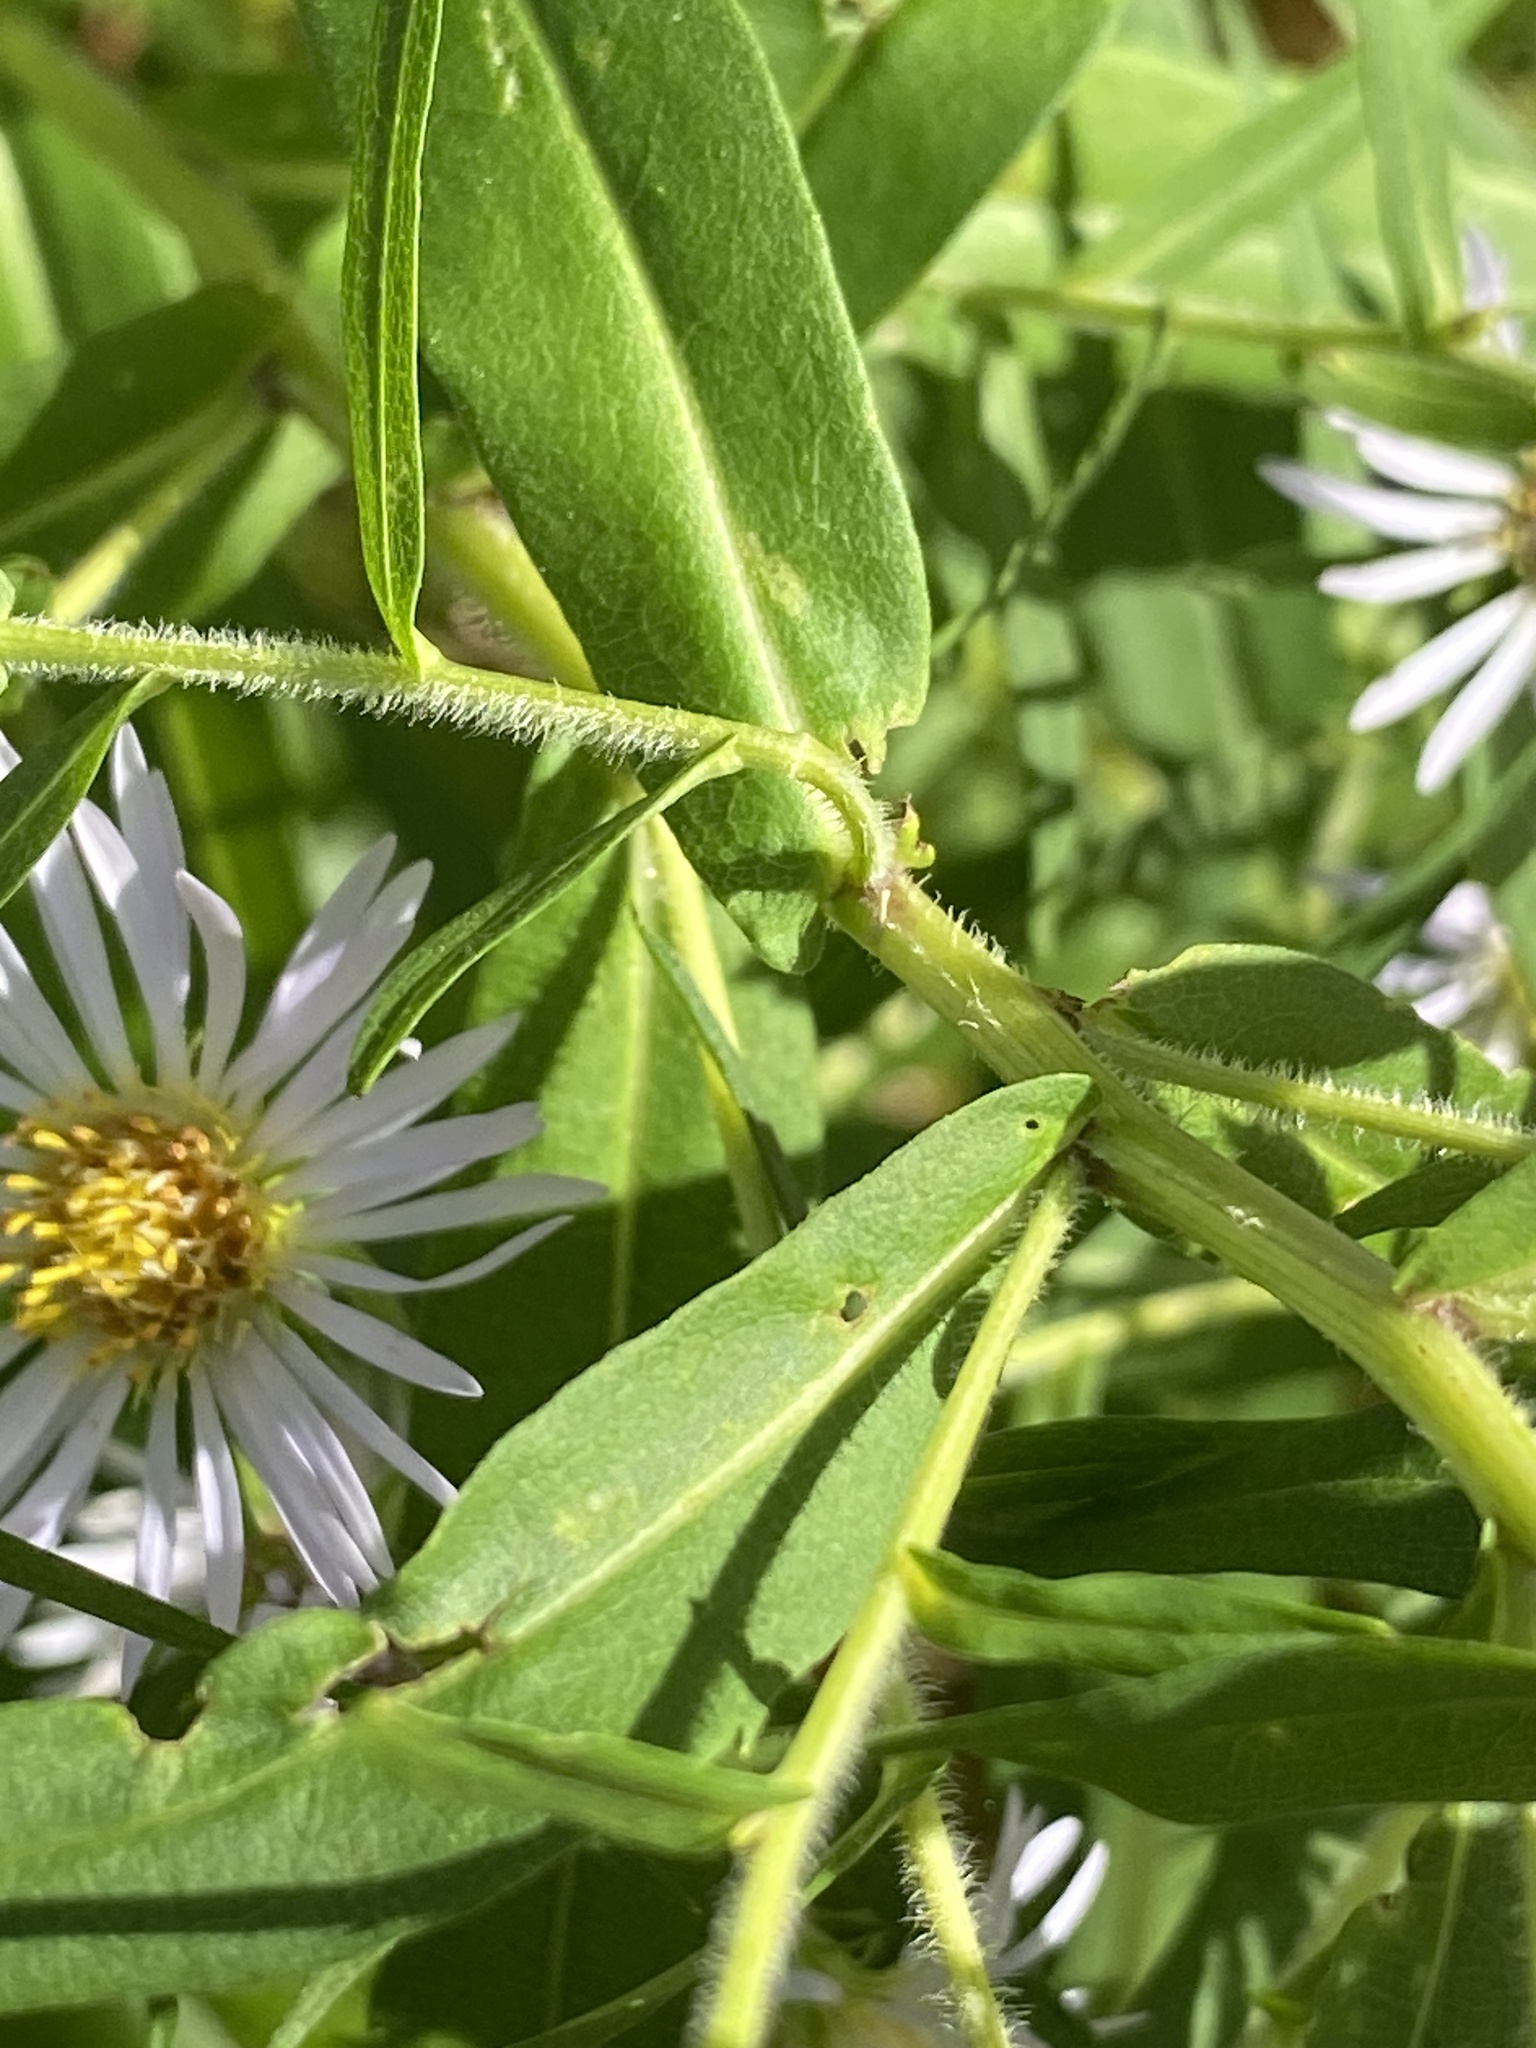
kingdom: Plantae
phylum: Tracheophyta
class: Magnoliopsida
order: Asterales
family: Asteraceae
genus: Symphyotrichum
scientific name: Symphyotrichum firmum
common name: Shining aster
